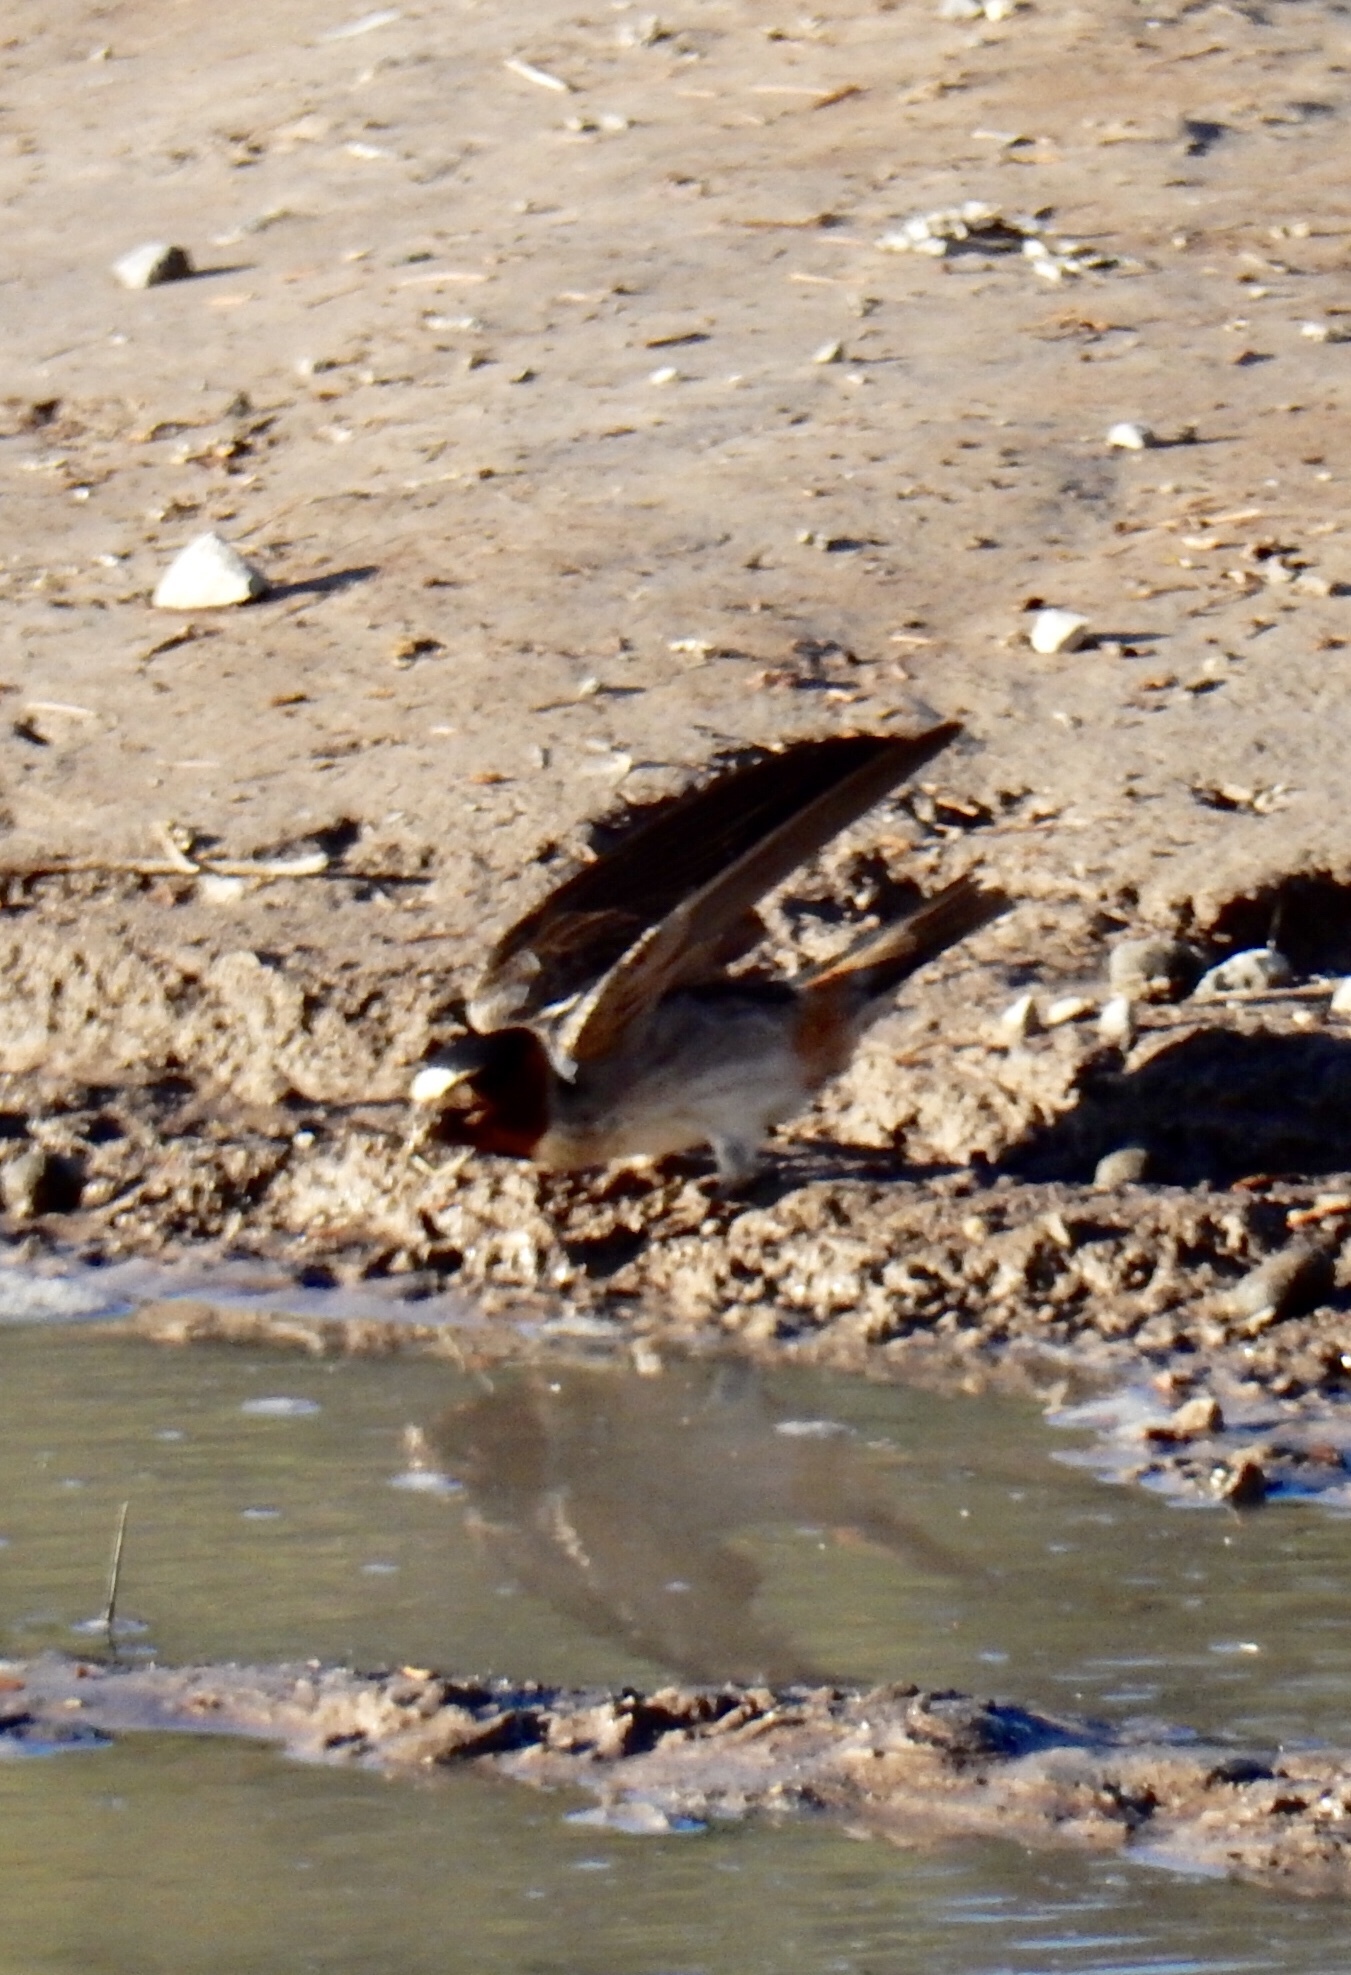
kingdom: Animalia
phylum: Chordata
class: Aves
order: Passeriformes
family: Hirundinidae
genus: Petrochelidon
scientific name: Petrochelidon pyrrhonota
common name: American cliff swallow
